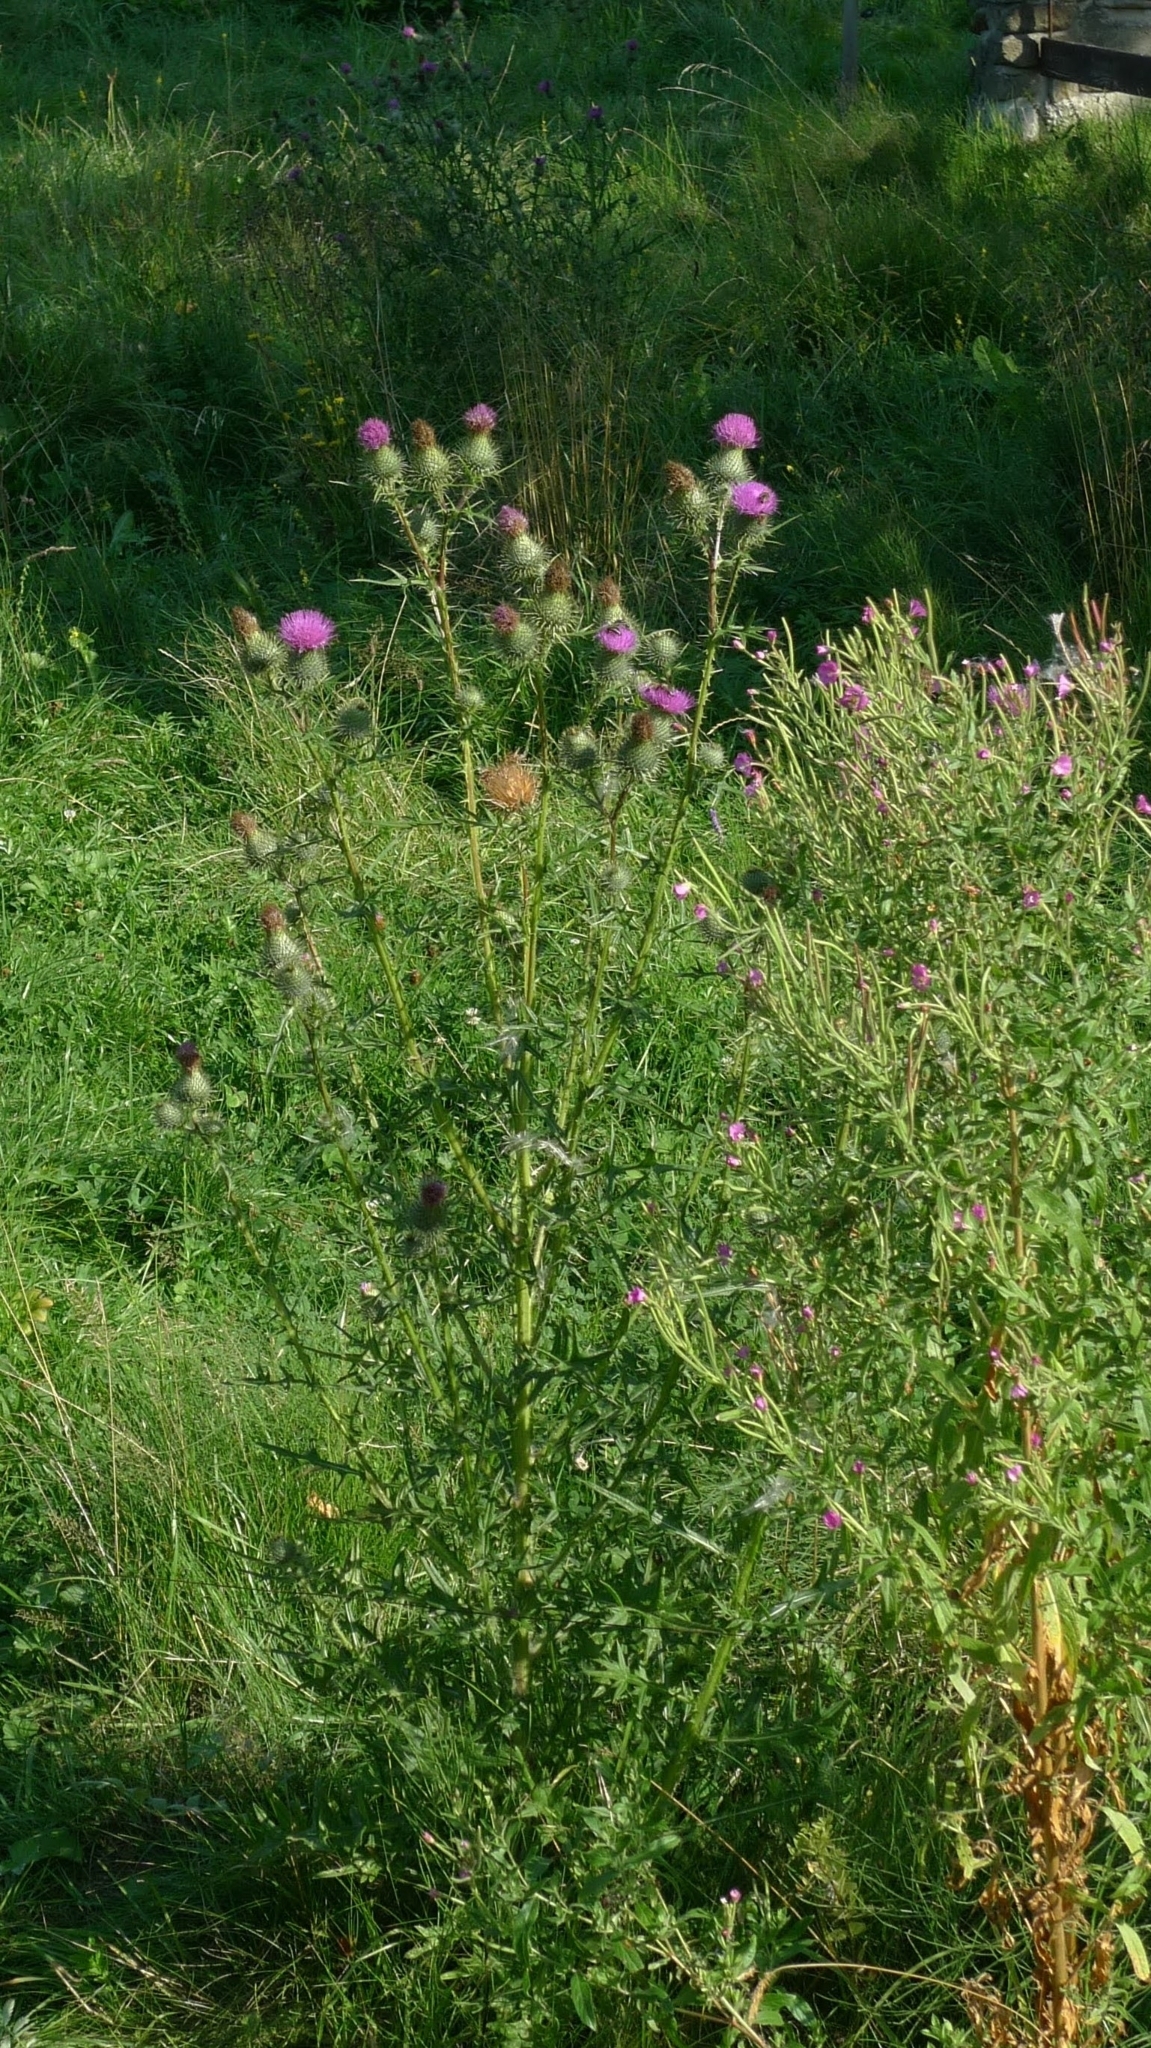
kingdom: Plantae
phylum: Tracheophyta
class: Magnoliopsida
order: Asterales
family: Asteraceae
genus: Cirsium
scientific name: Cirsium vulgare
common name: Bull thistle
